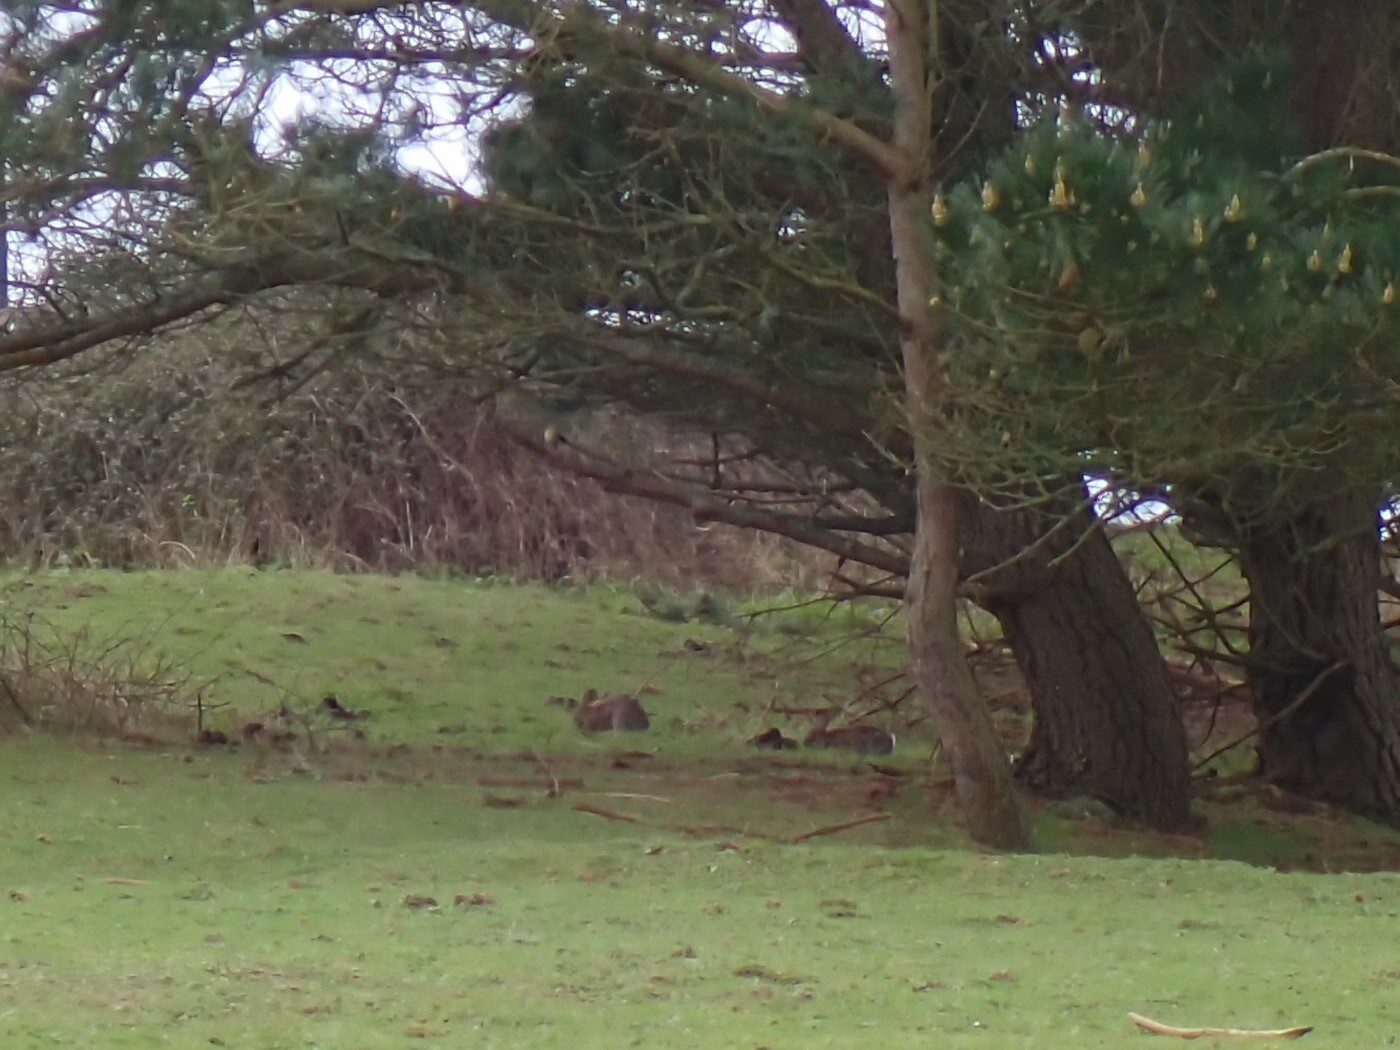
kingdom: Animalia
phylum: Chordata
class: Mammalia
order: Lagomorpha
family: Leporidae
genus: Oryctolagus
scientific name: Oryctolagus cuniculus
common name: European rabbit
